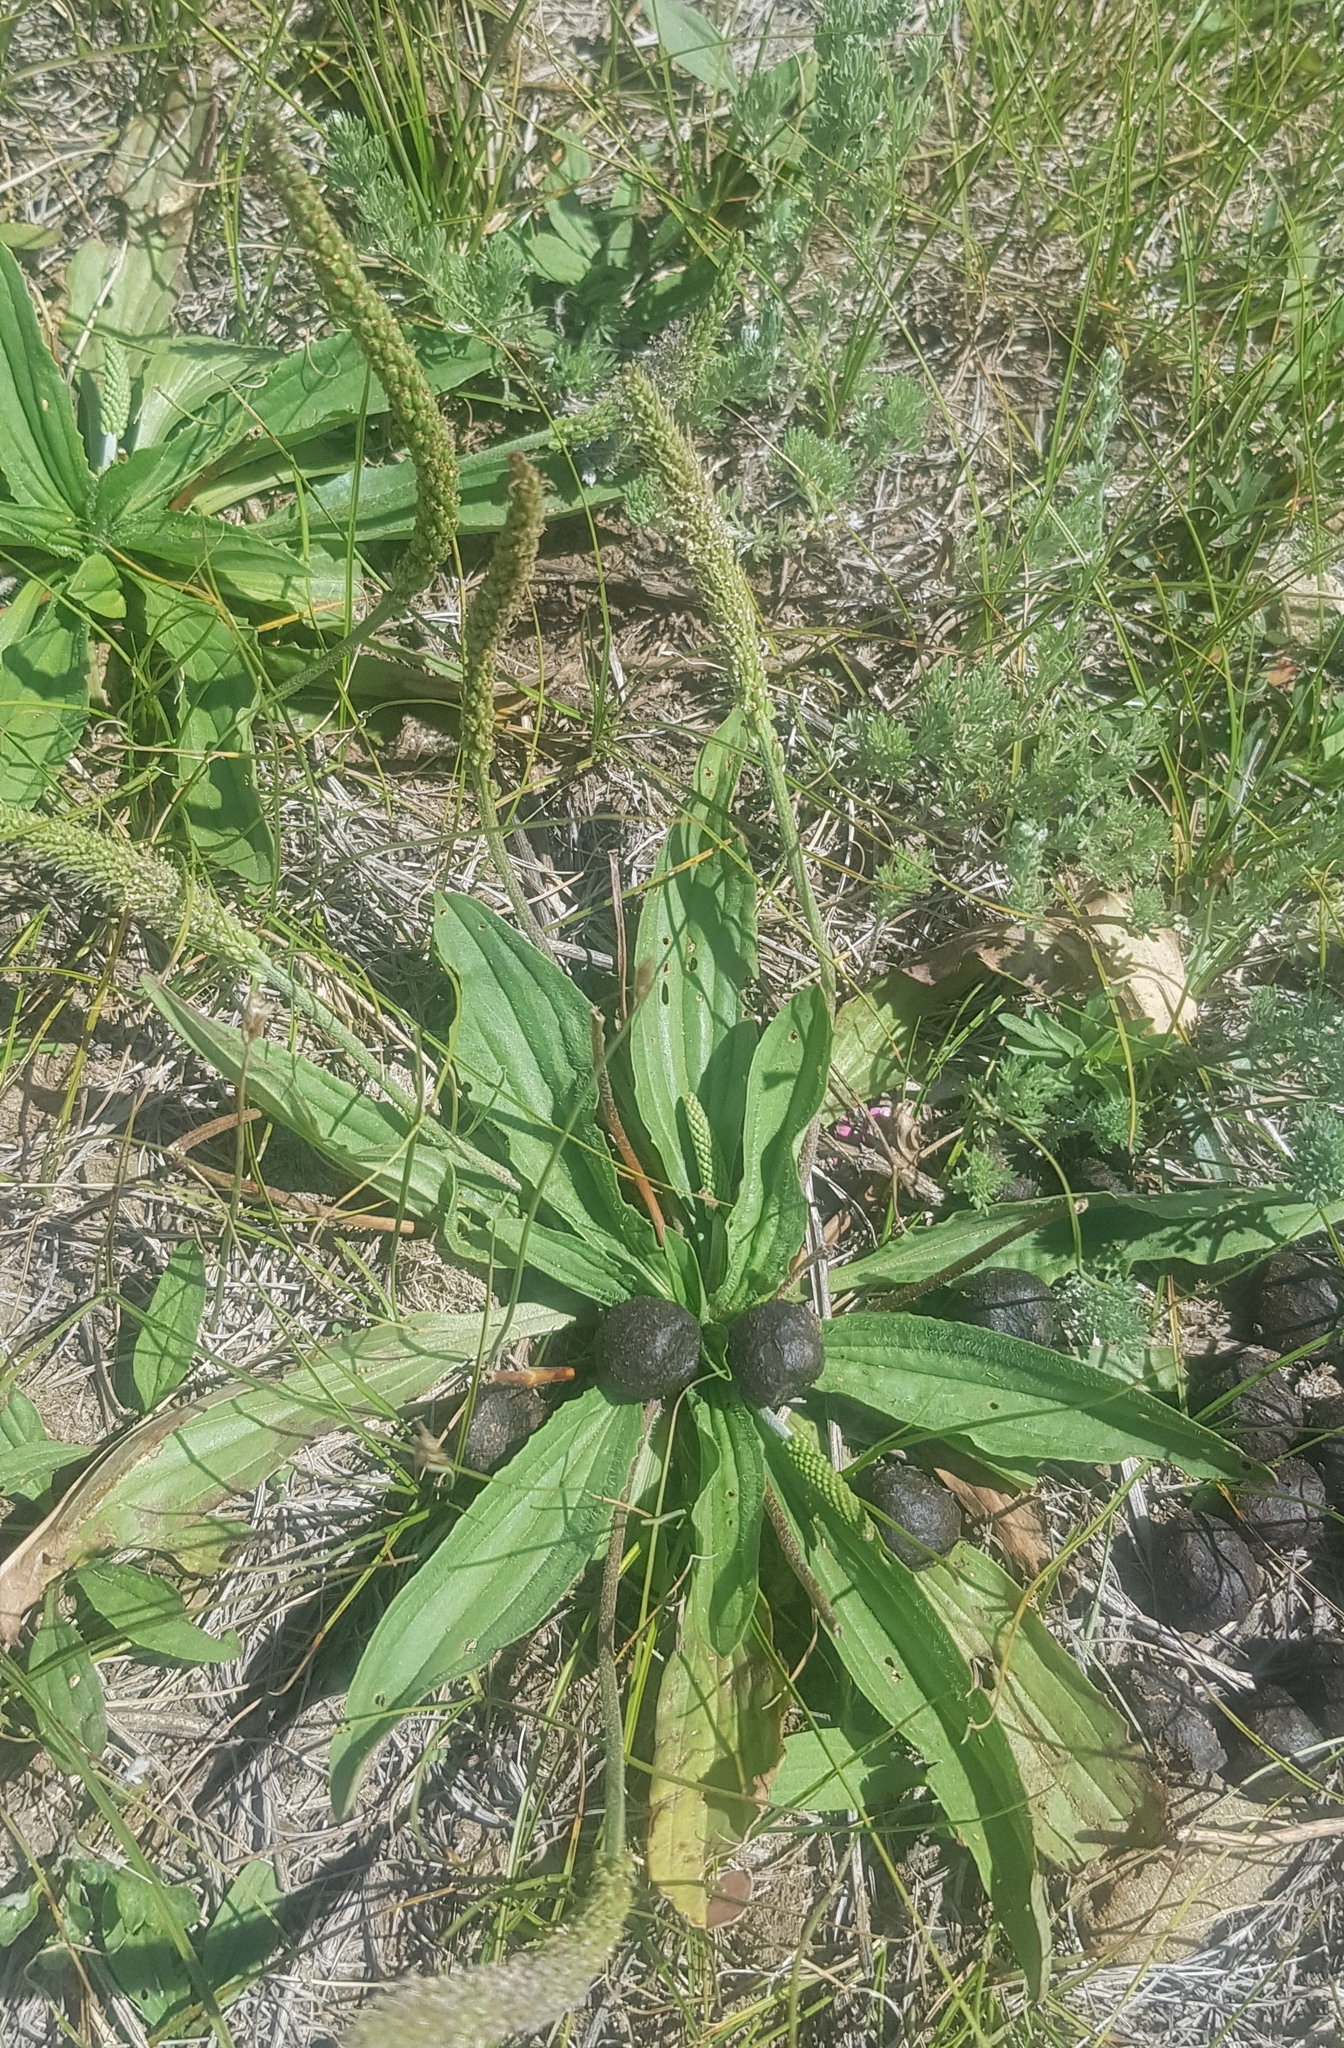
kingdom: Plantae
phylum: Tracheophyta
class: Magnoliopsida
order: Lamiales
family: Plantaginaceae
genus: Plantago
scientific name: Plantago urvillei
